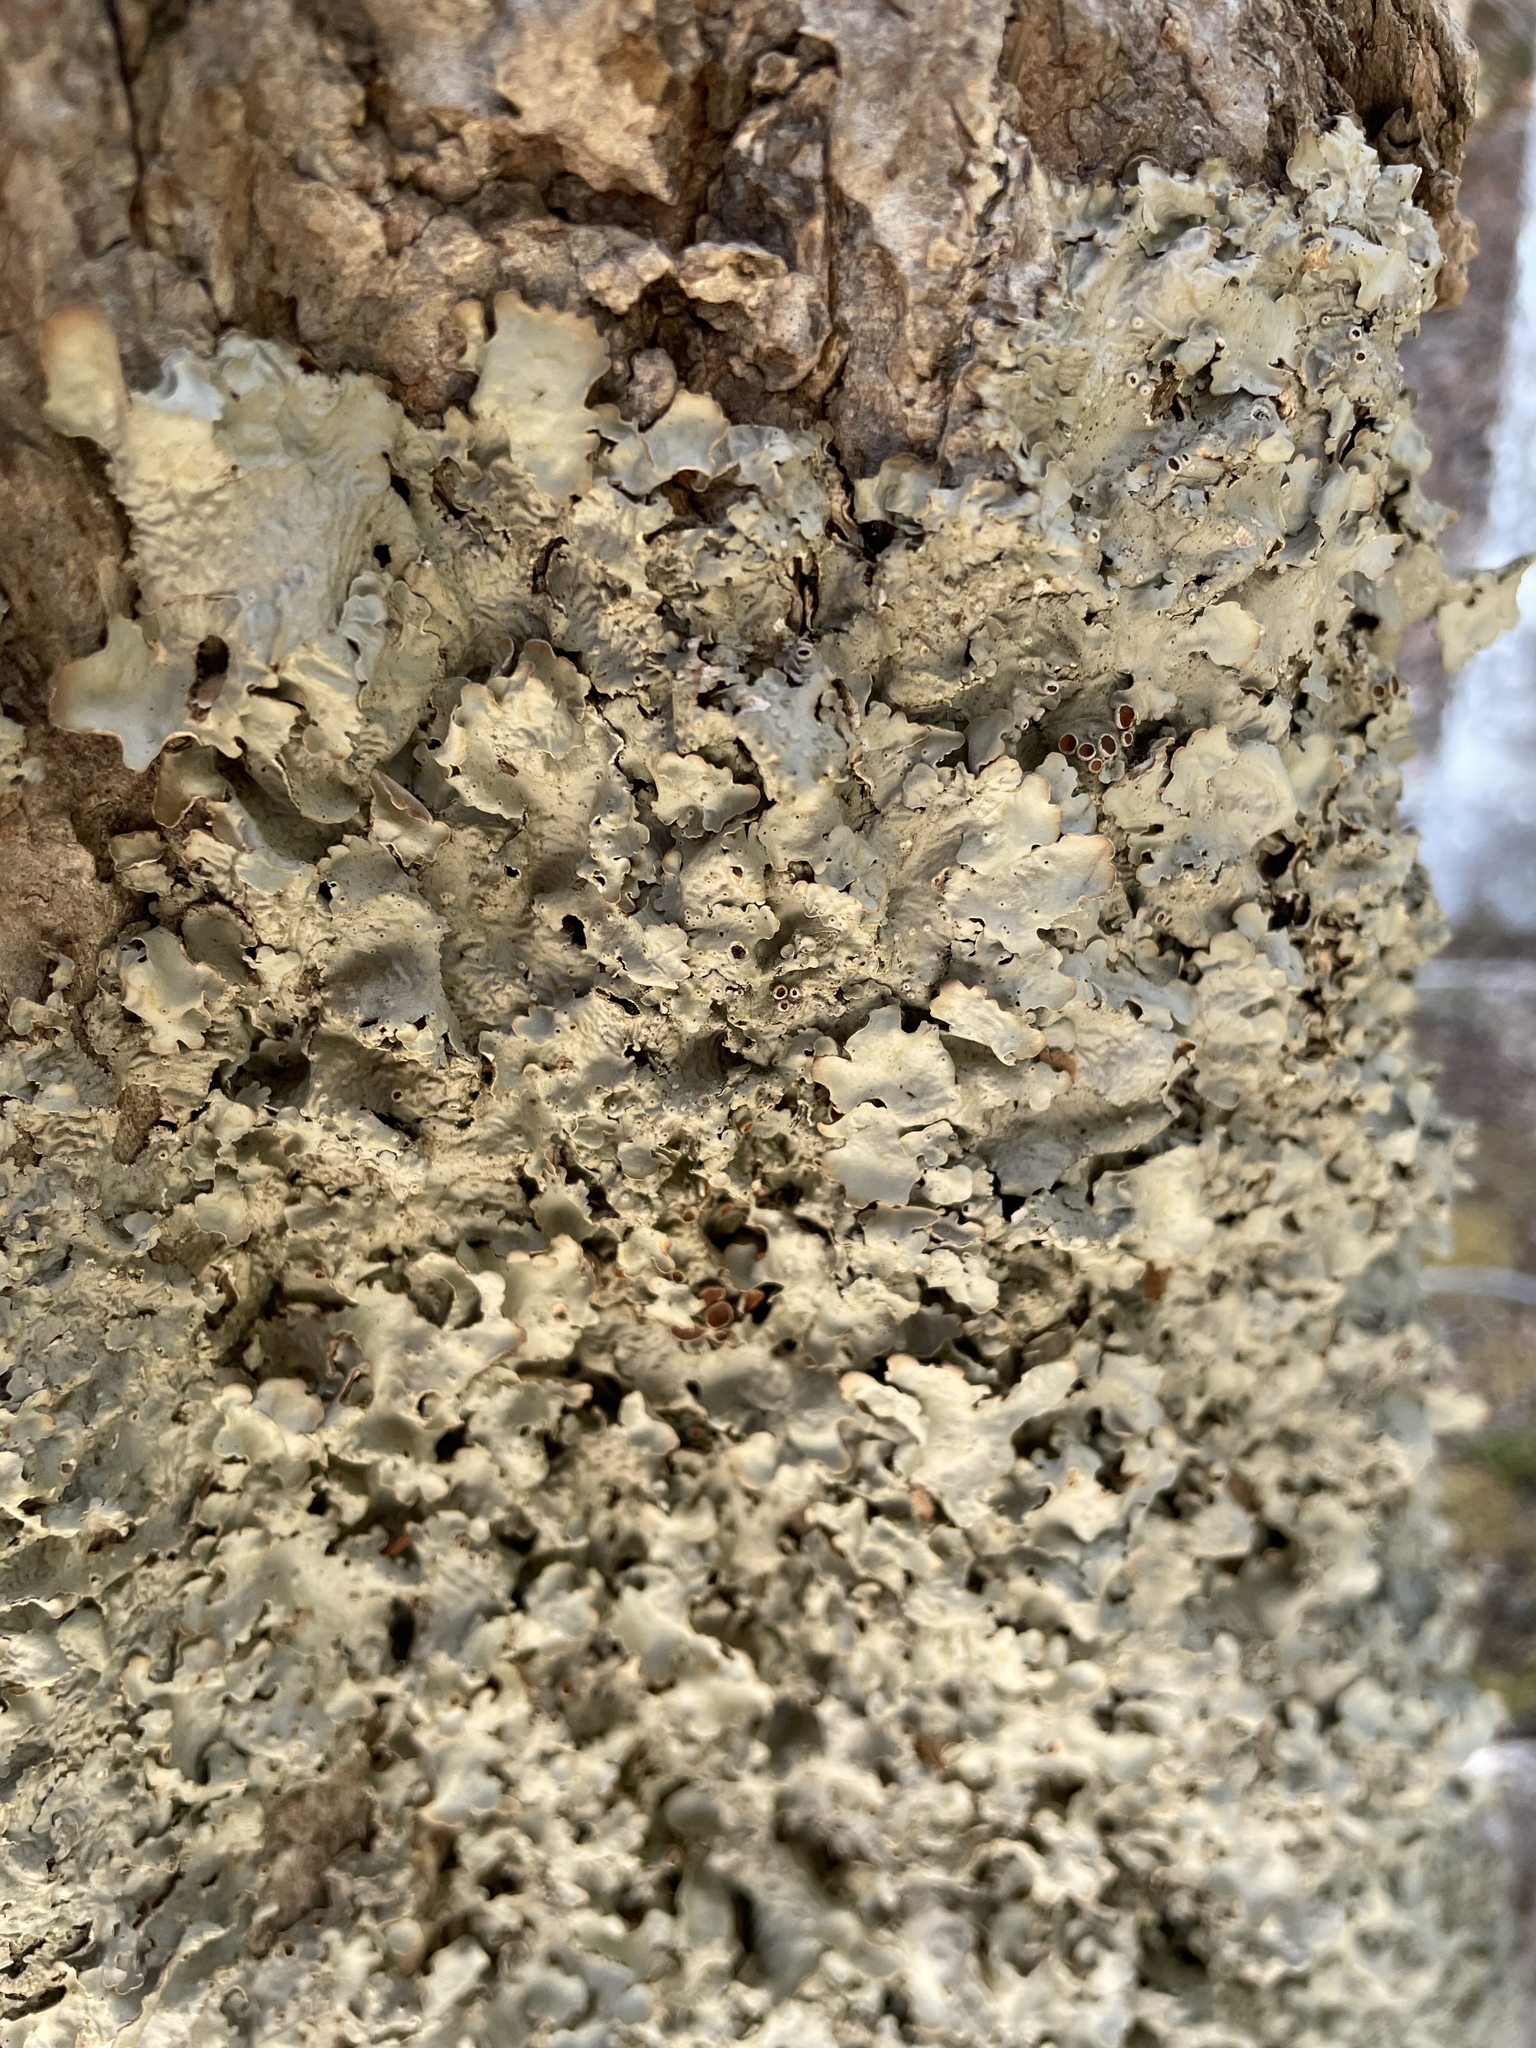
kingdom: Fungi
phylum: Ascomycota
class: Lecanoromycetes
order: Peltigerales
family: Lobariaceae
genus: Ricasolia
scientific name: Ricasolia quercizans
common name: Smooth lungwort
